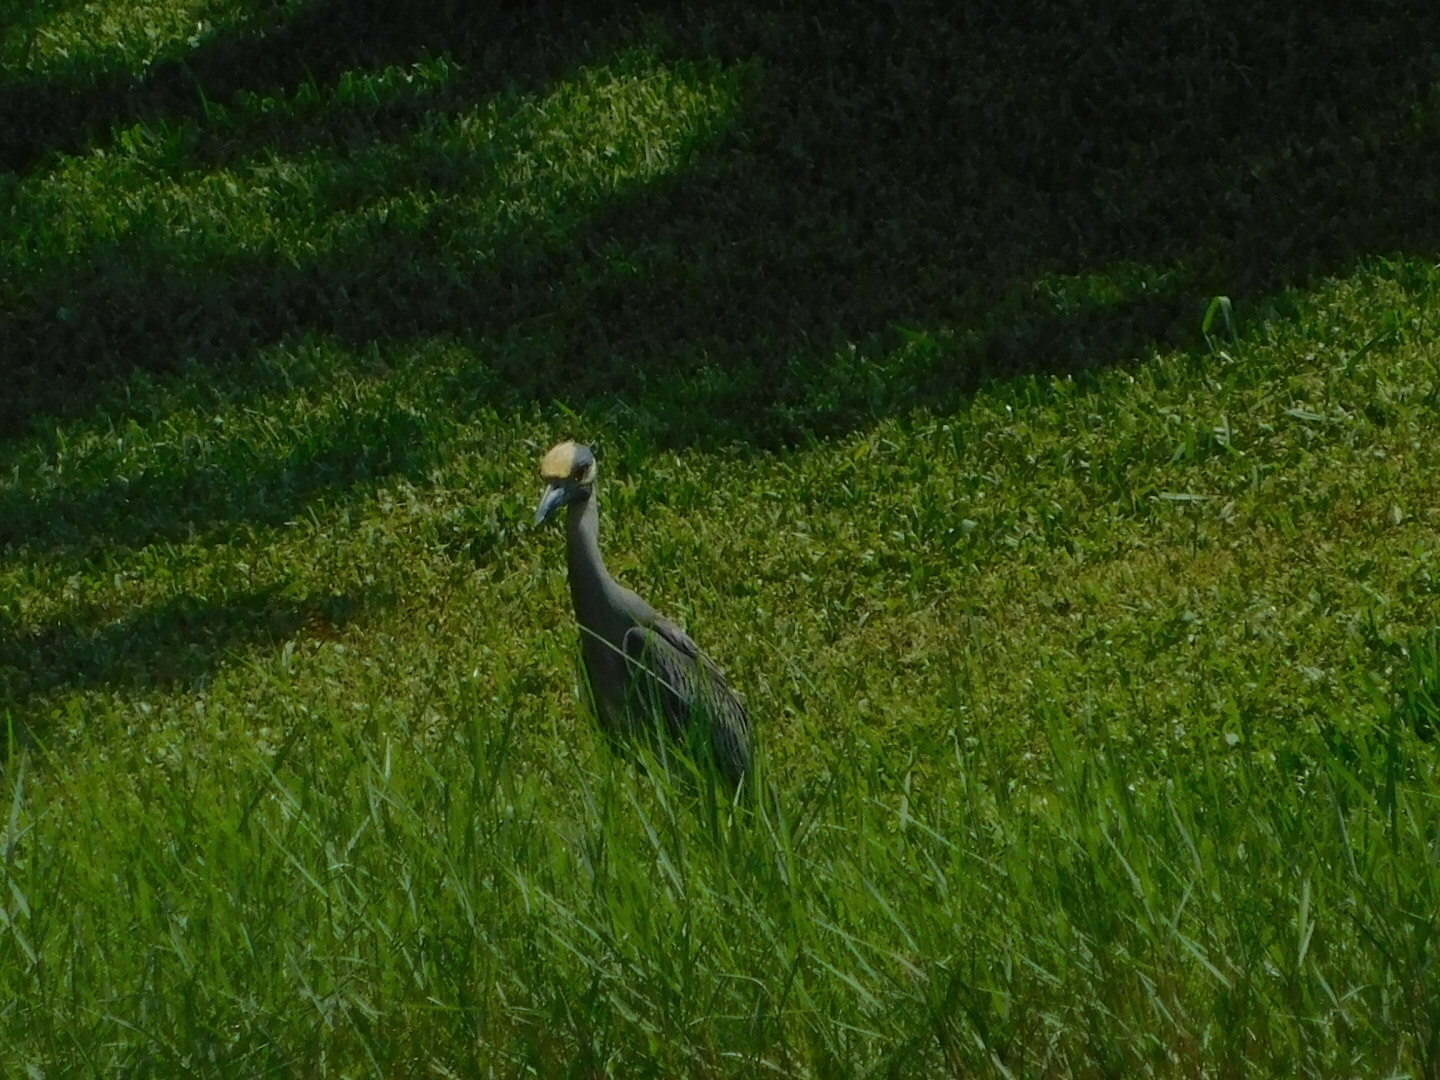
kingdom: Animalia
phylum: Chordata
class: Aves
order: Pelecaniformes
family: Ardeidae
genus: Nyctanassa
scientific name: Nyctanassa violacea
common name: Yellow-crowned night heron
